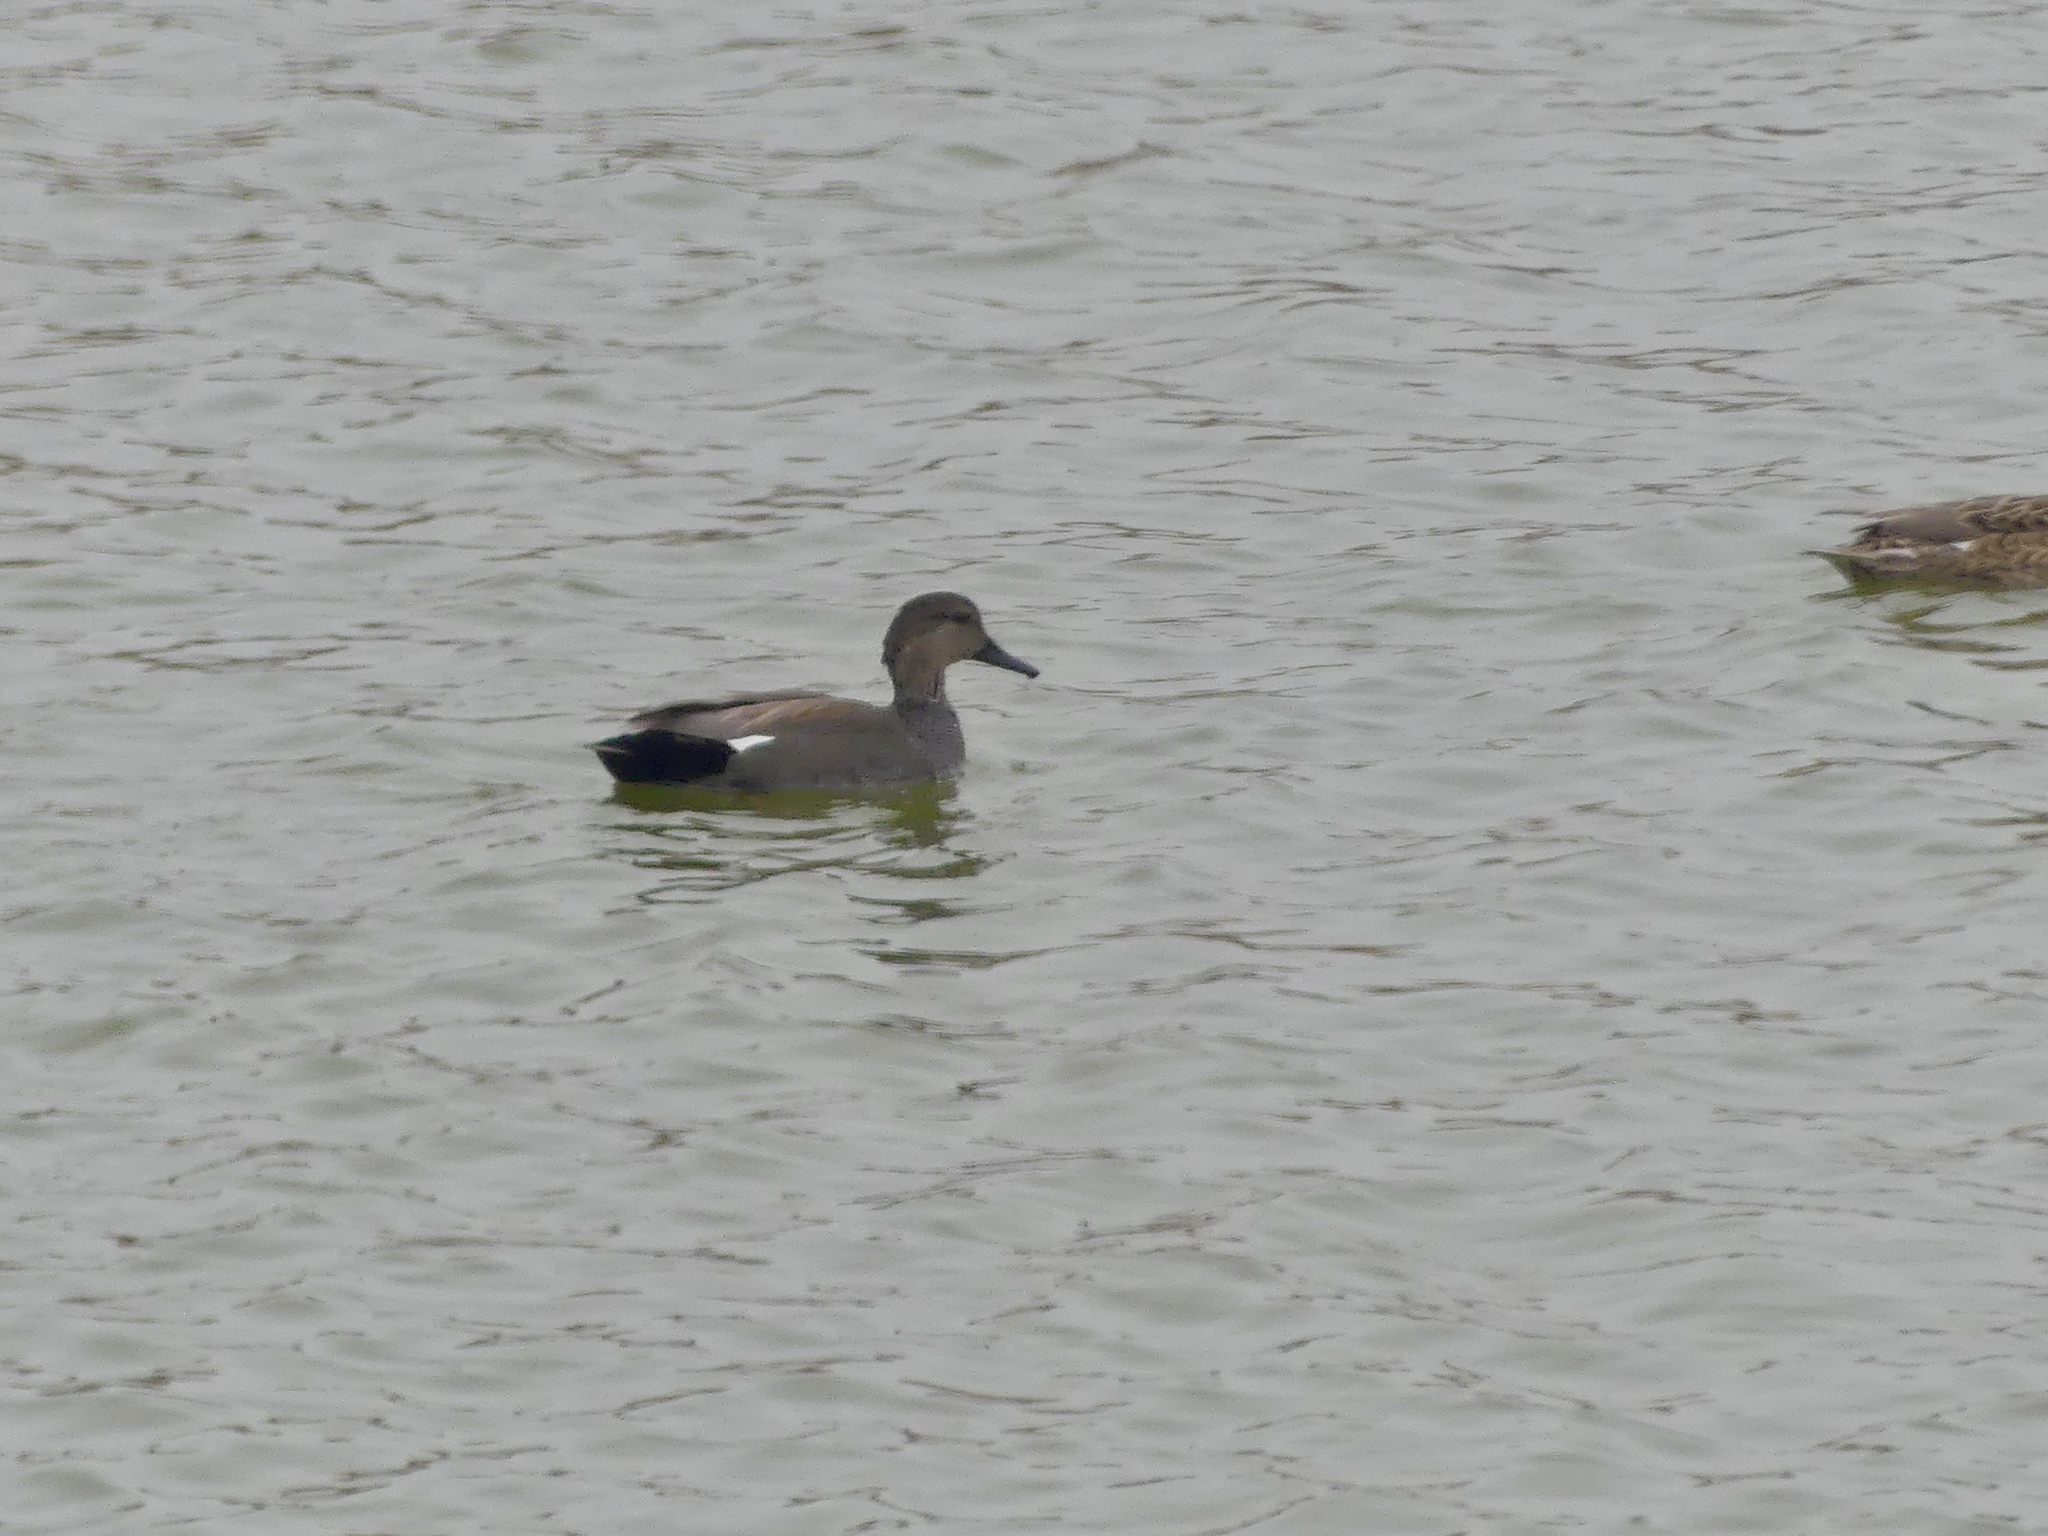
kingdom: Animalia
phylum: Chordata
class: Aves
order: Anseriformes
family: Anatidae
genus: Mareca
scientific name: Mareca strepera
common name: Gadwall
